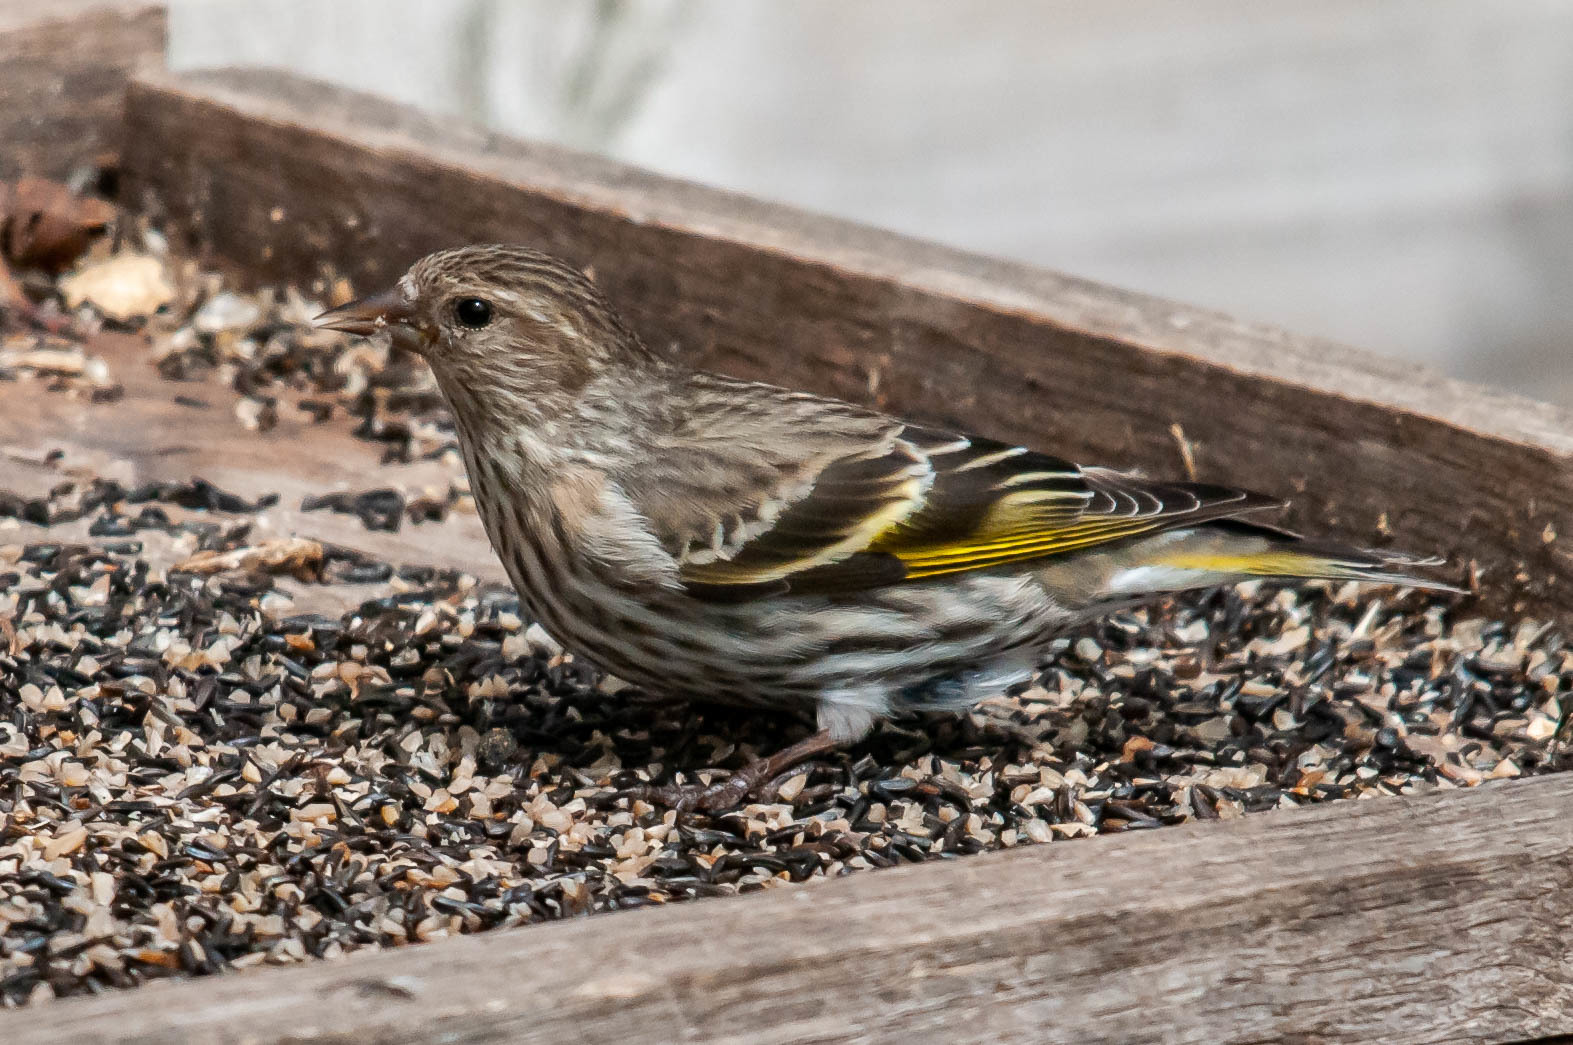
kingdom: Animalia
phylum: Chordata
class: Aves
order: Passeriformes
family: Fringillidae
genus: Spinus
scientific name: Spinus pinus
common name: Pine siskin
